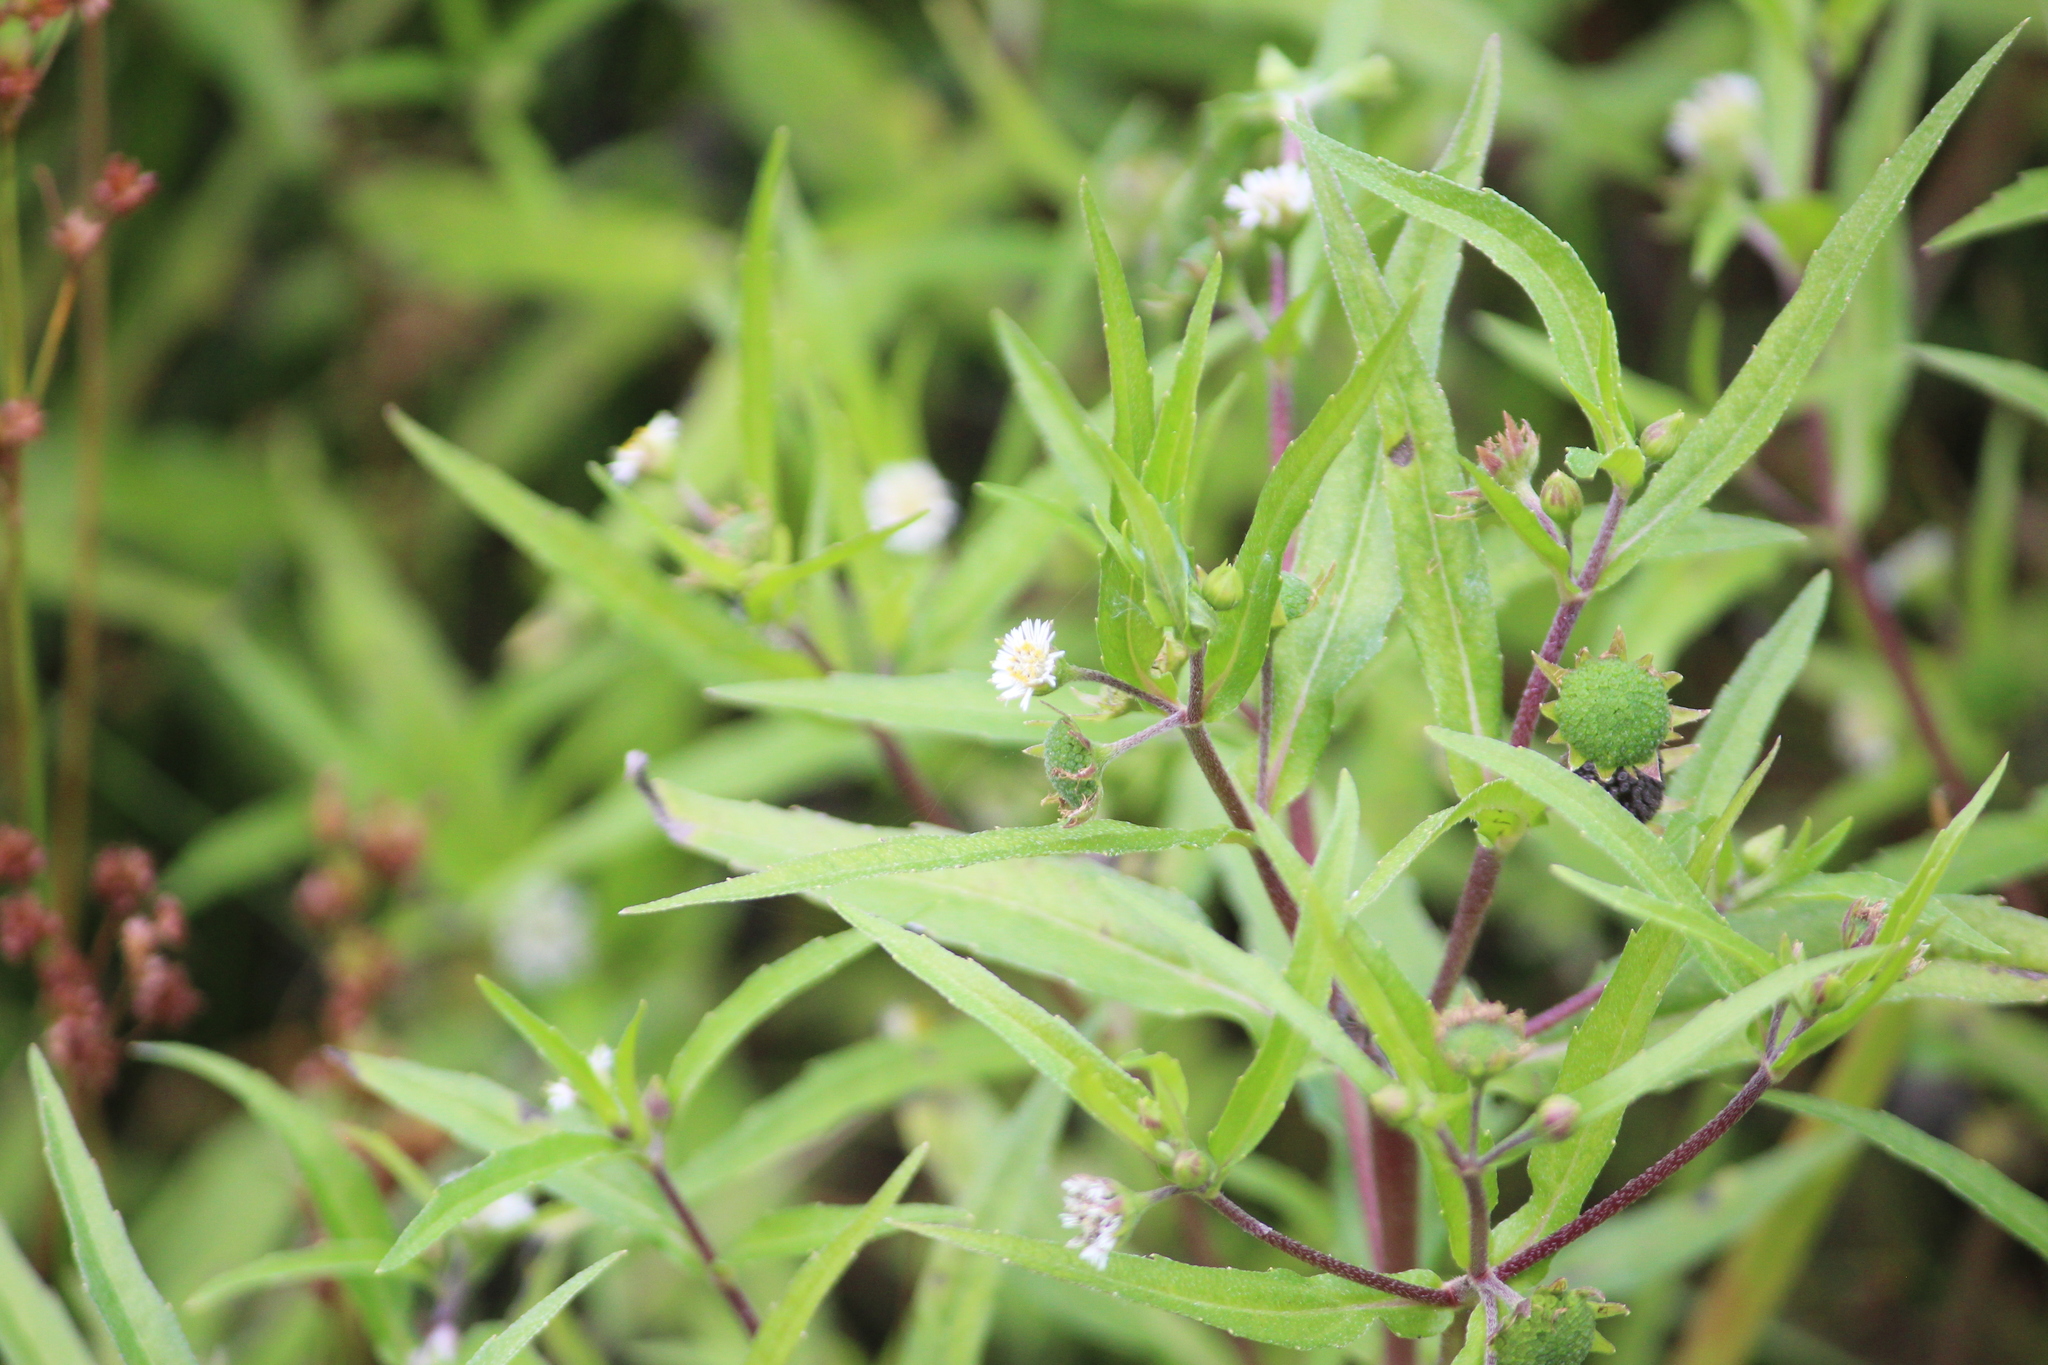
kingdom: Plantae
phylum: Tracheophyta
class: Magnoliopsida
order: Asterales
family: Asteraceae
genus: Eclipta
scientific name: Eclipta prostrata
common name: False daisy
